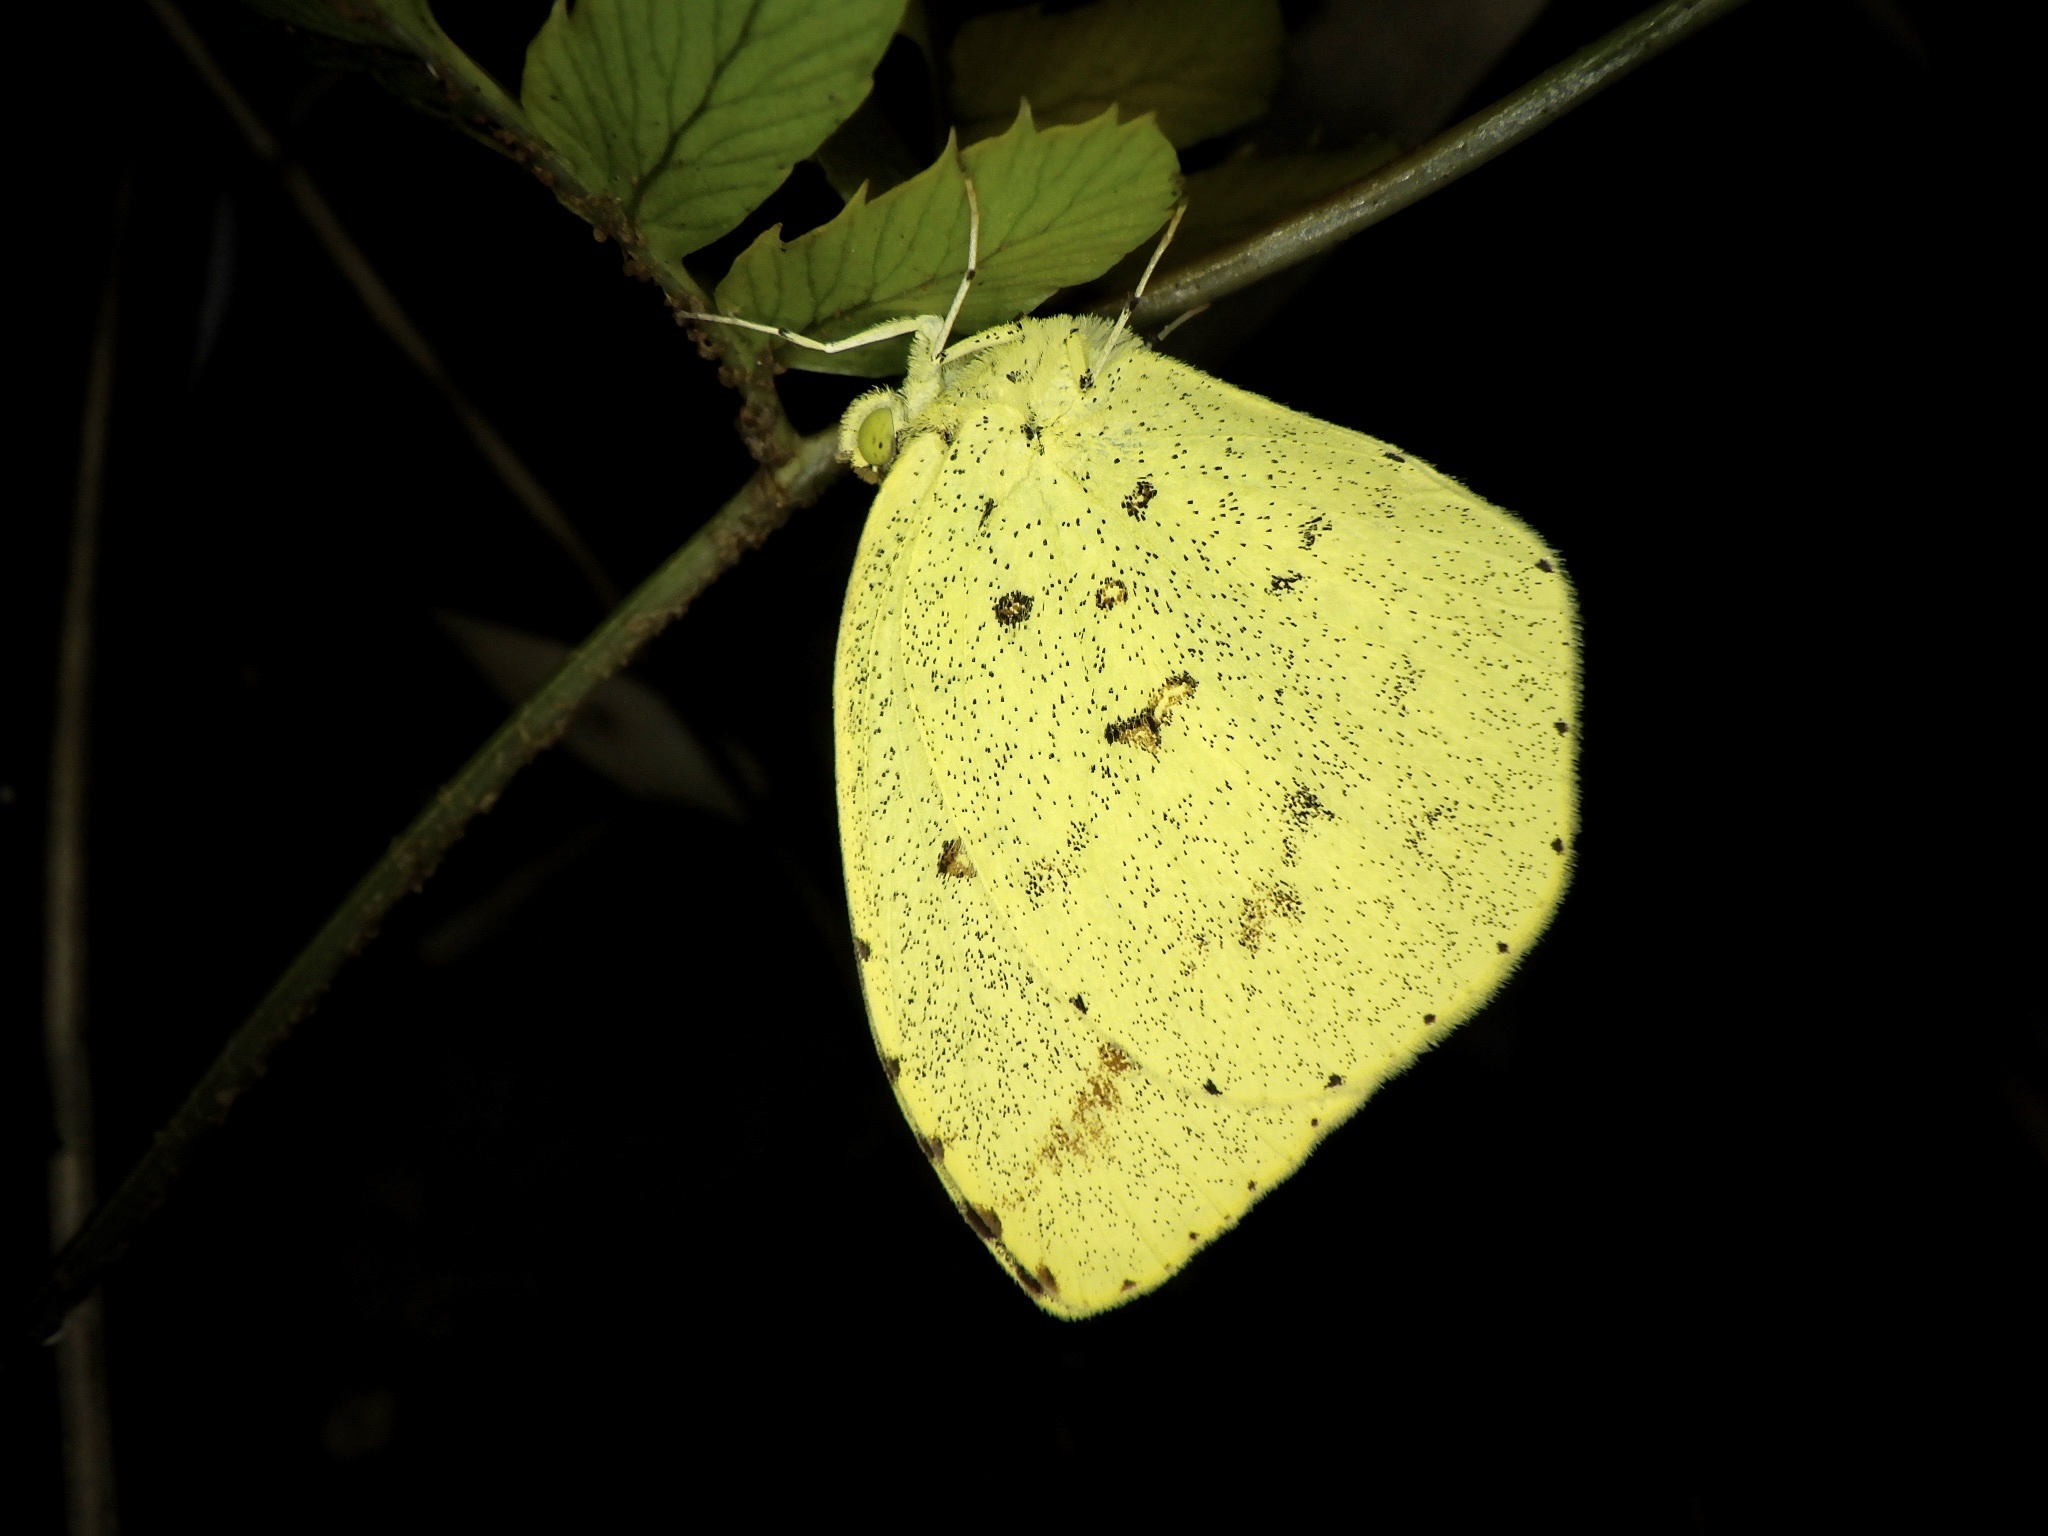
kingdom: Animalia
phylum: Arthropoda
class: Insecta
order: Lepidoptera
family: Pieridae
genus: Eurema
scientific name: Eurema mandarina
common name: Japanese common grass yellow
